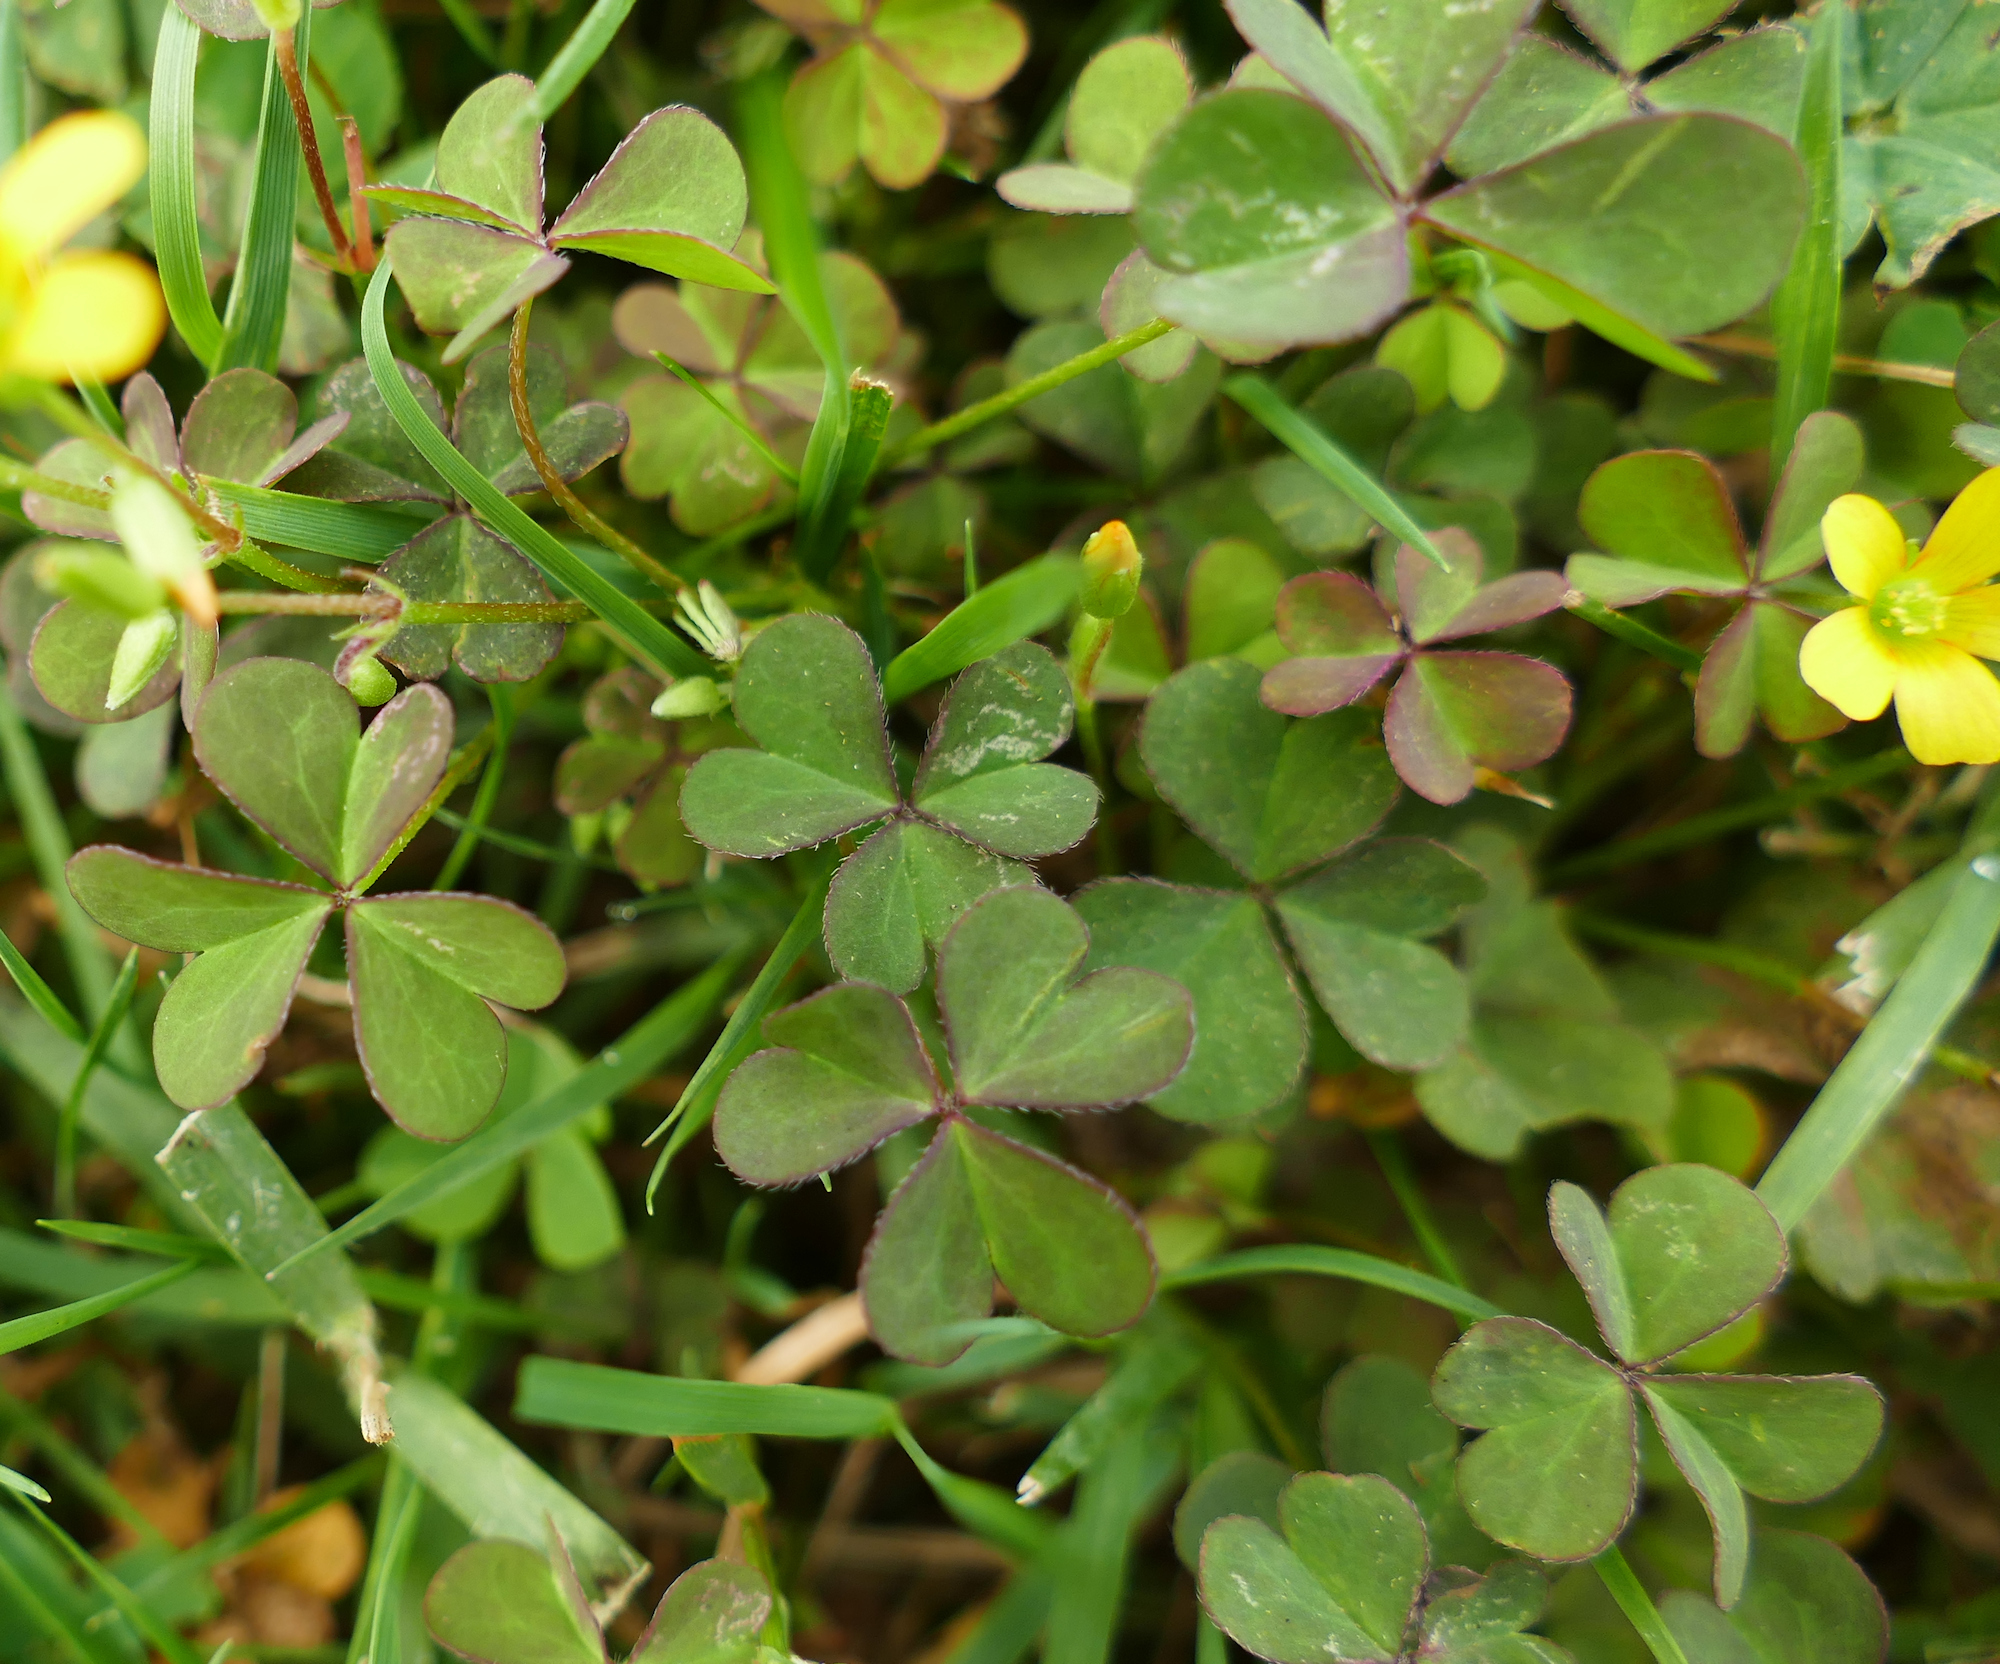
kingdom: Plantae
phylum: Tracheophyta
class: Magnoliopsida
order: Oxalidales
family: Oxalidaceae
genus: Oxalis
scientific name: Oxalis corniculata
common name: Procumbent yellow-sorrel
